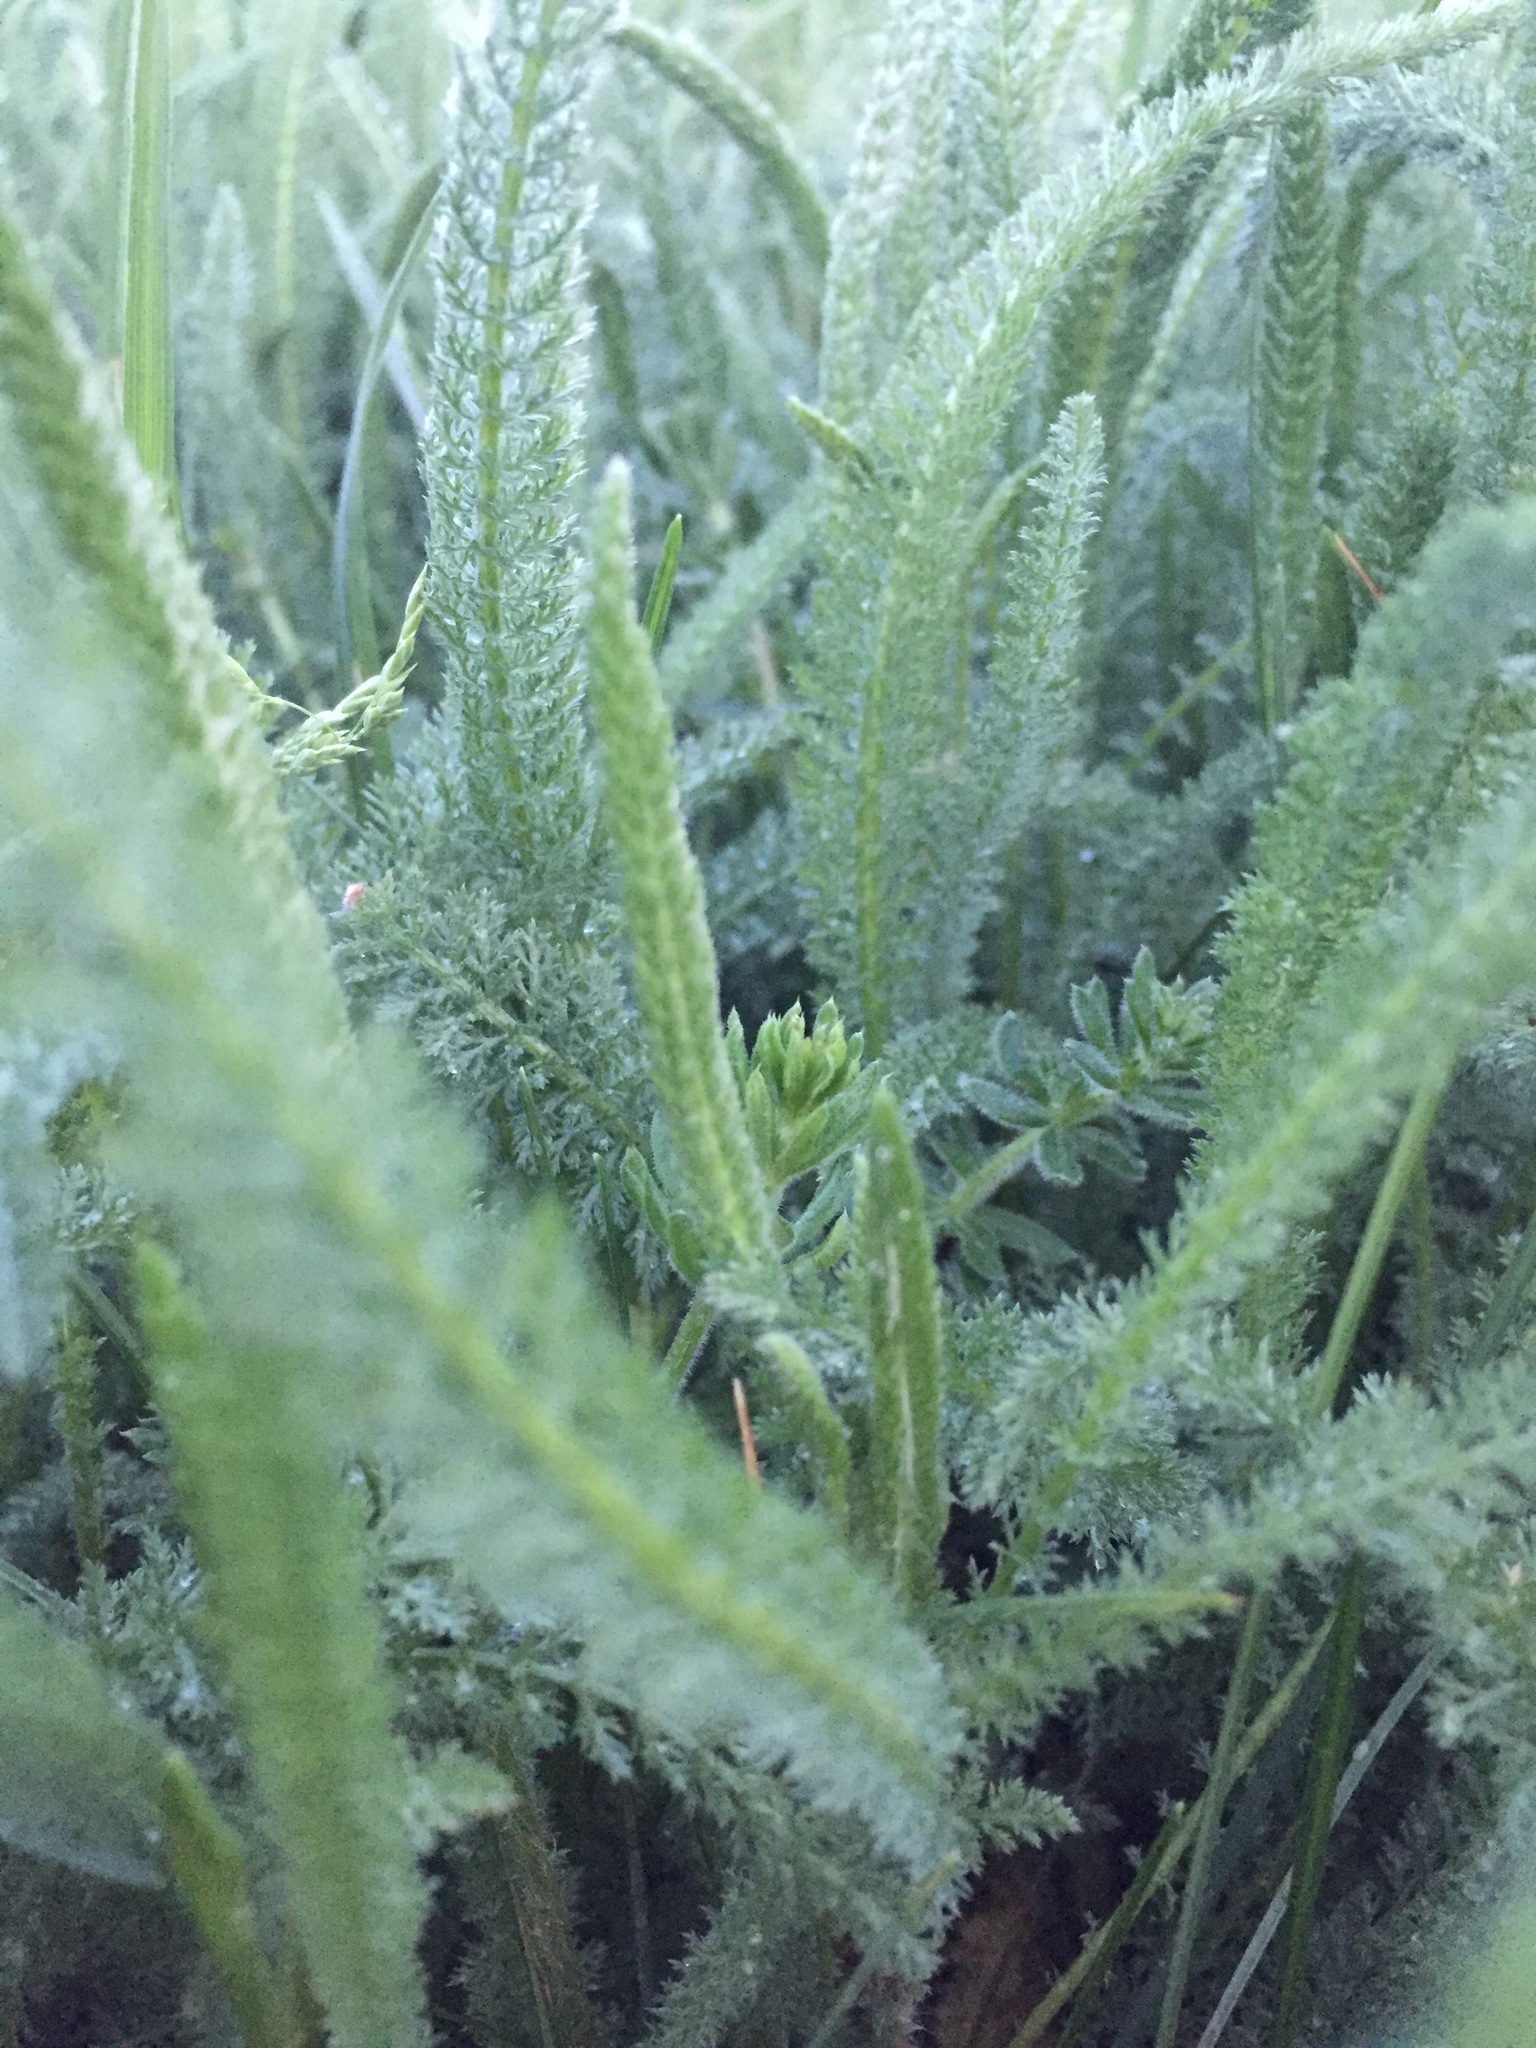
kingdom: Plantae
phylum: Tracheophyta
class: Magnoliopsida
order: Asterales
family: Asteraceae
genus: Achillea
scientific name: Achillea millefolium
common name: Yarrow
